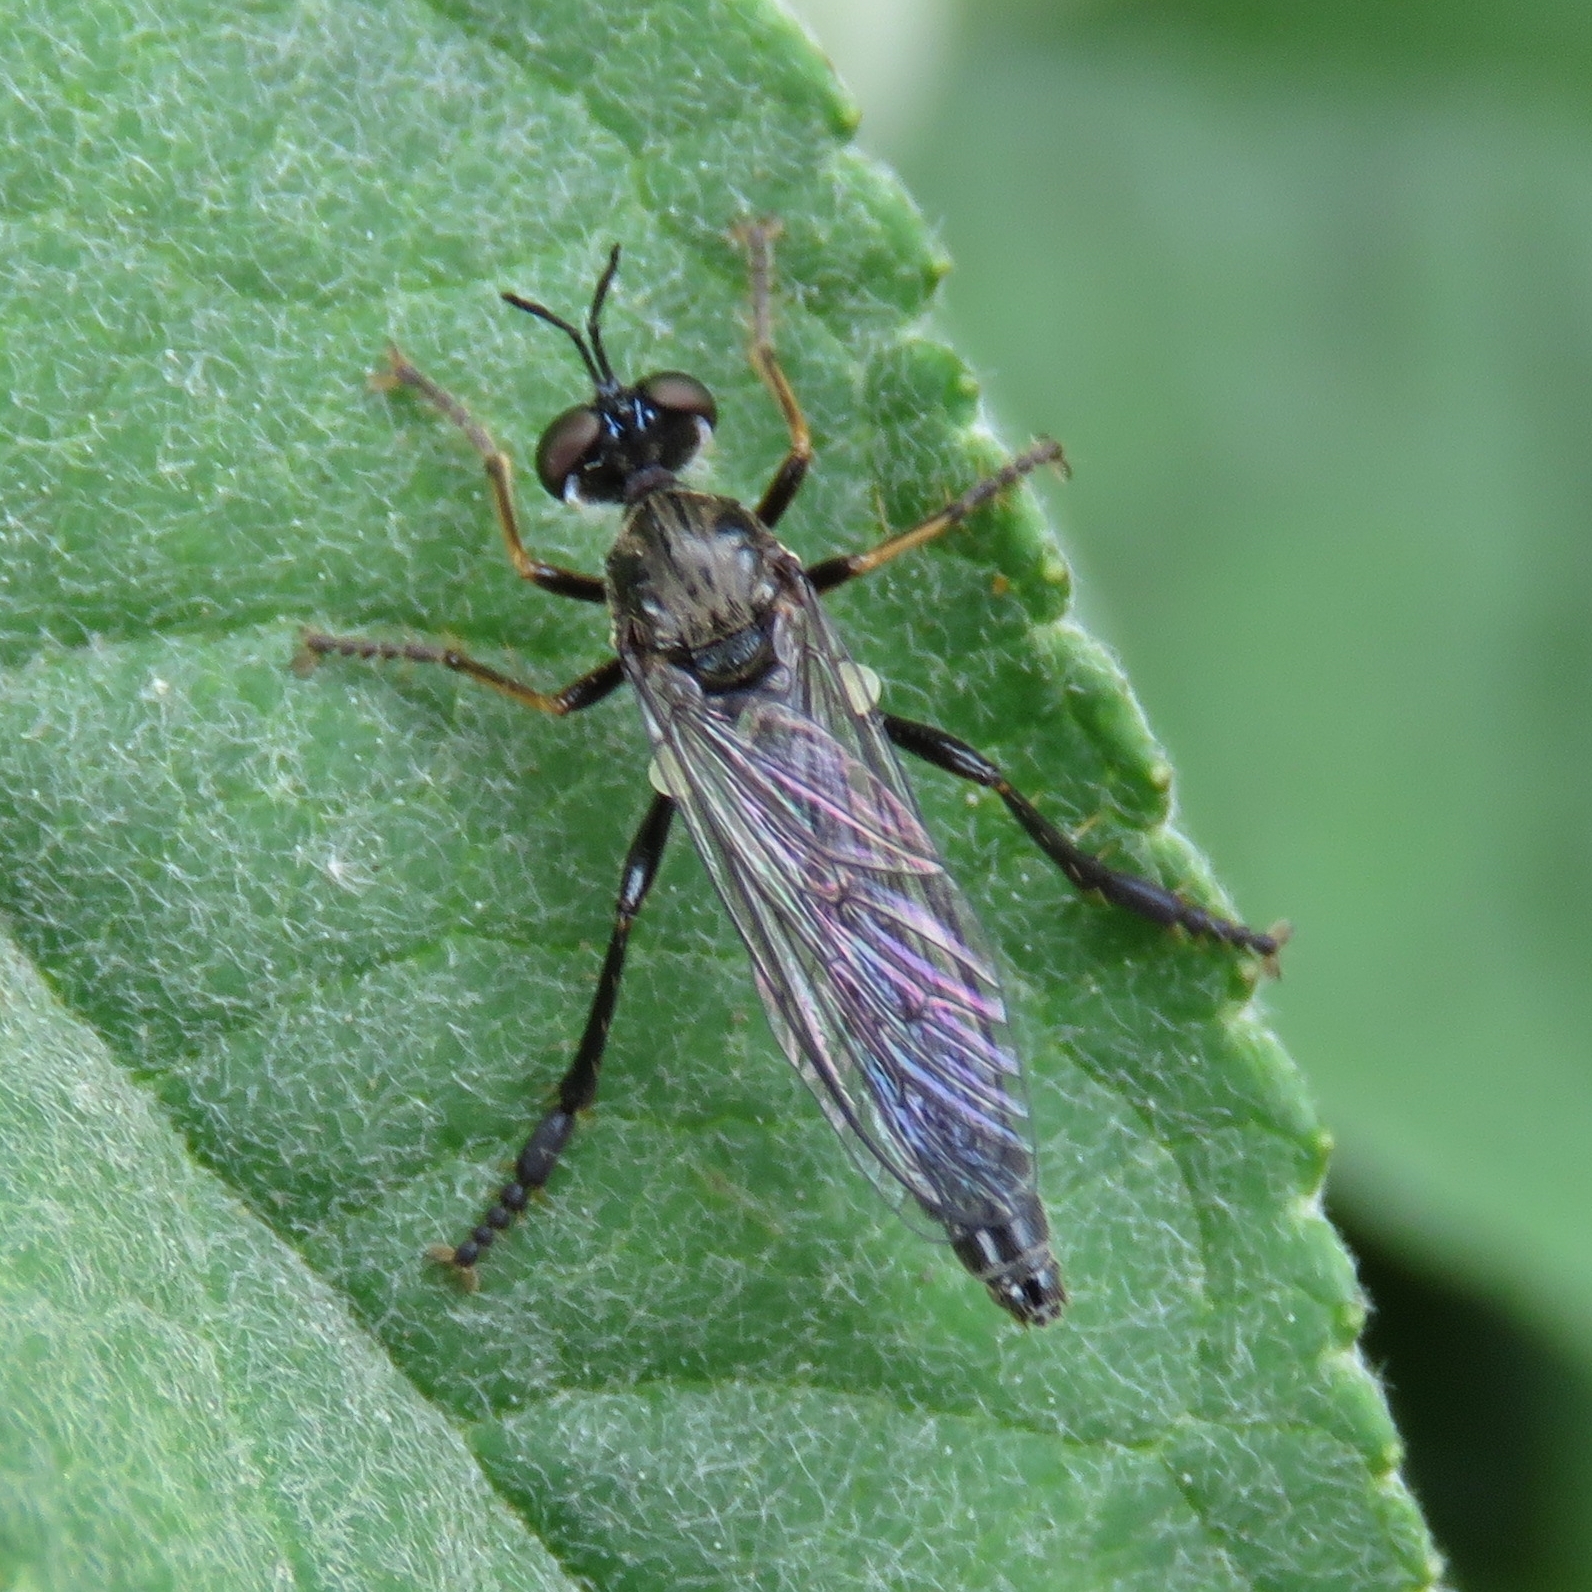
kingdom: Animalia
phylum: Arthropoda
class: Insecta
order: Diptera
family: Asilidae
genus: Dioctria
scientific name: Dioctria hyalipennis
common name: Stripe-legged robberfly
